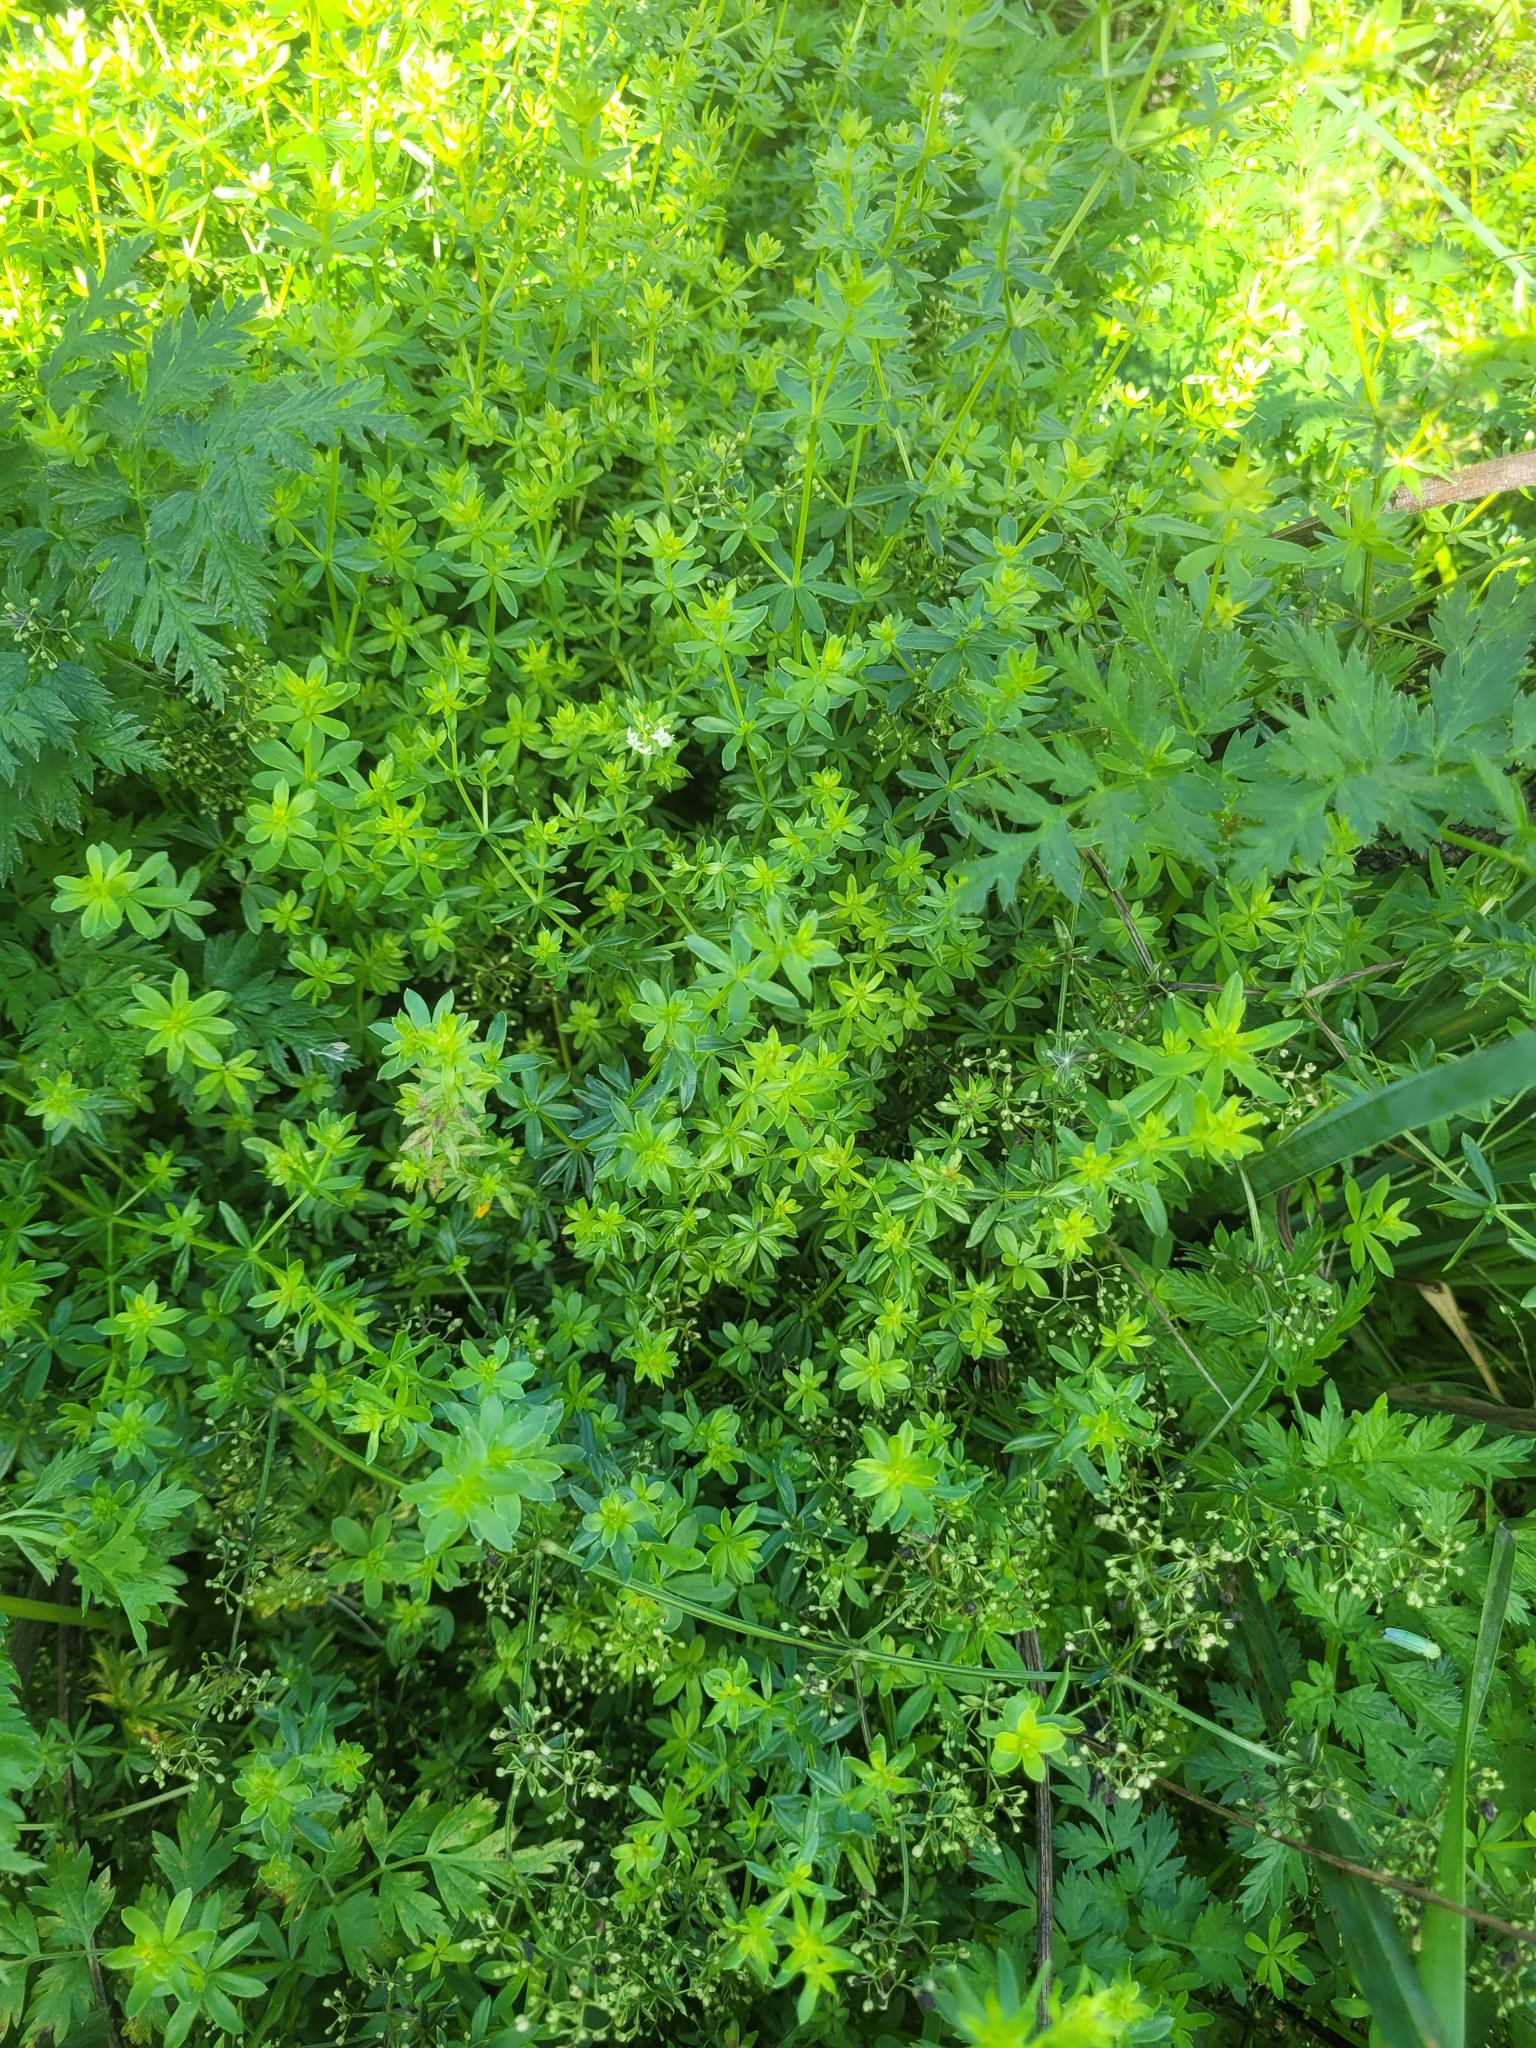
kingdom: Plantae
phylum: Tracheophyta
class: Magnoliopsida
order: Gentianales
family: Rubiaceae
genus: Galium
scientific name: Galium mollugo
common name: Hedge bedstraw
